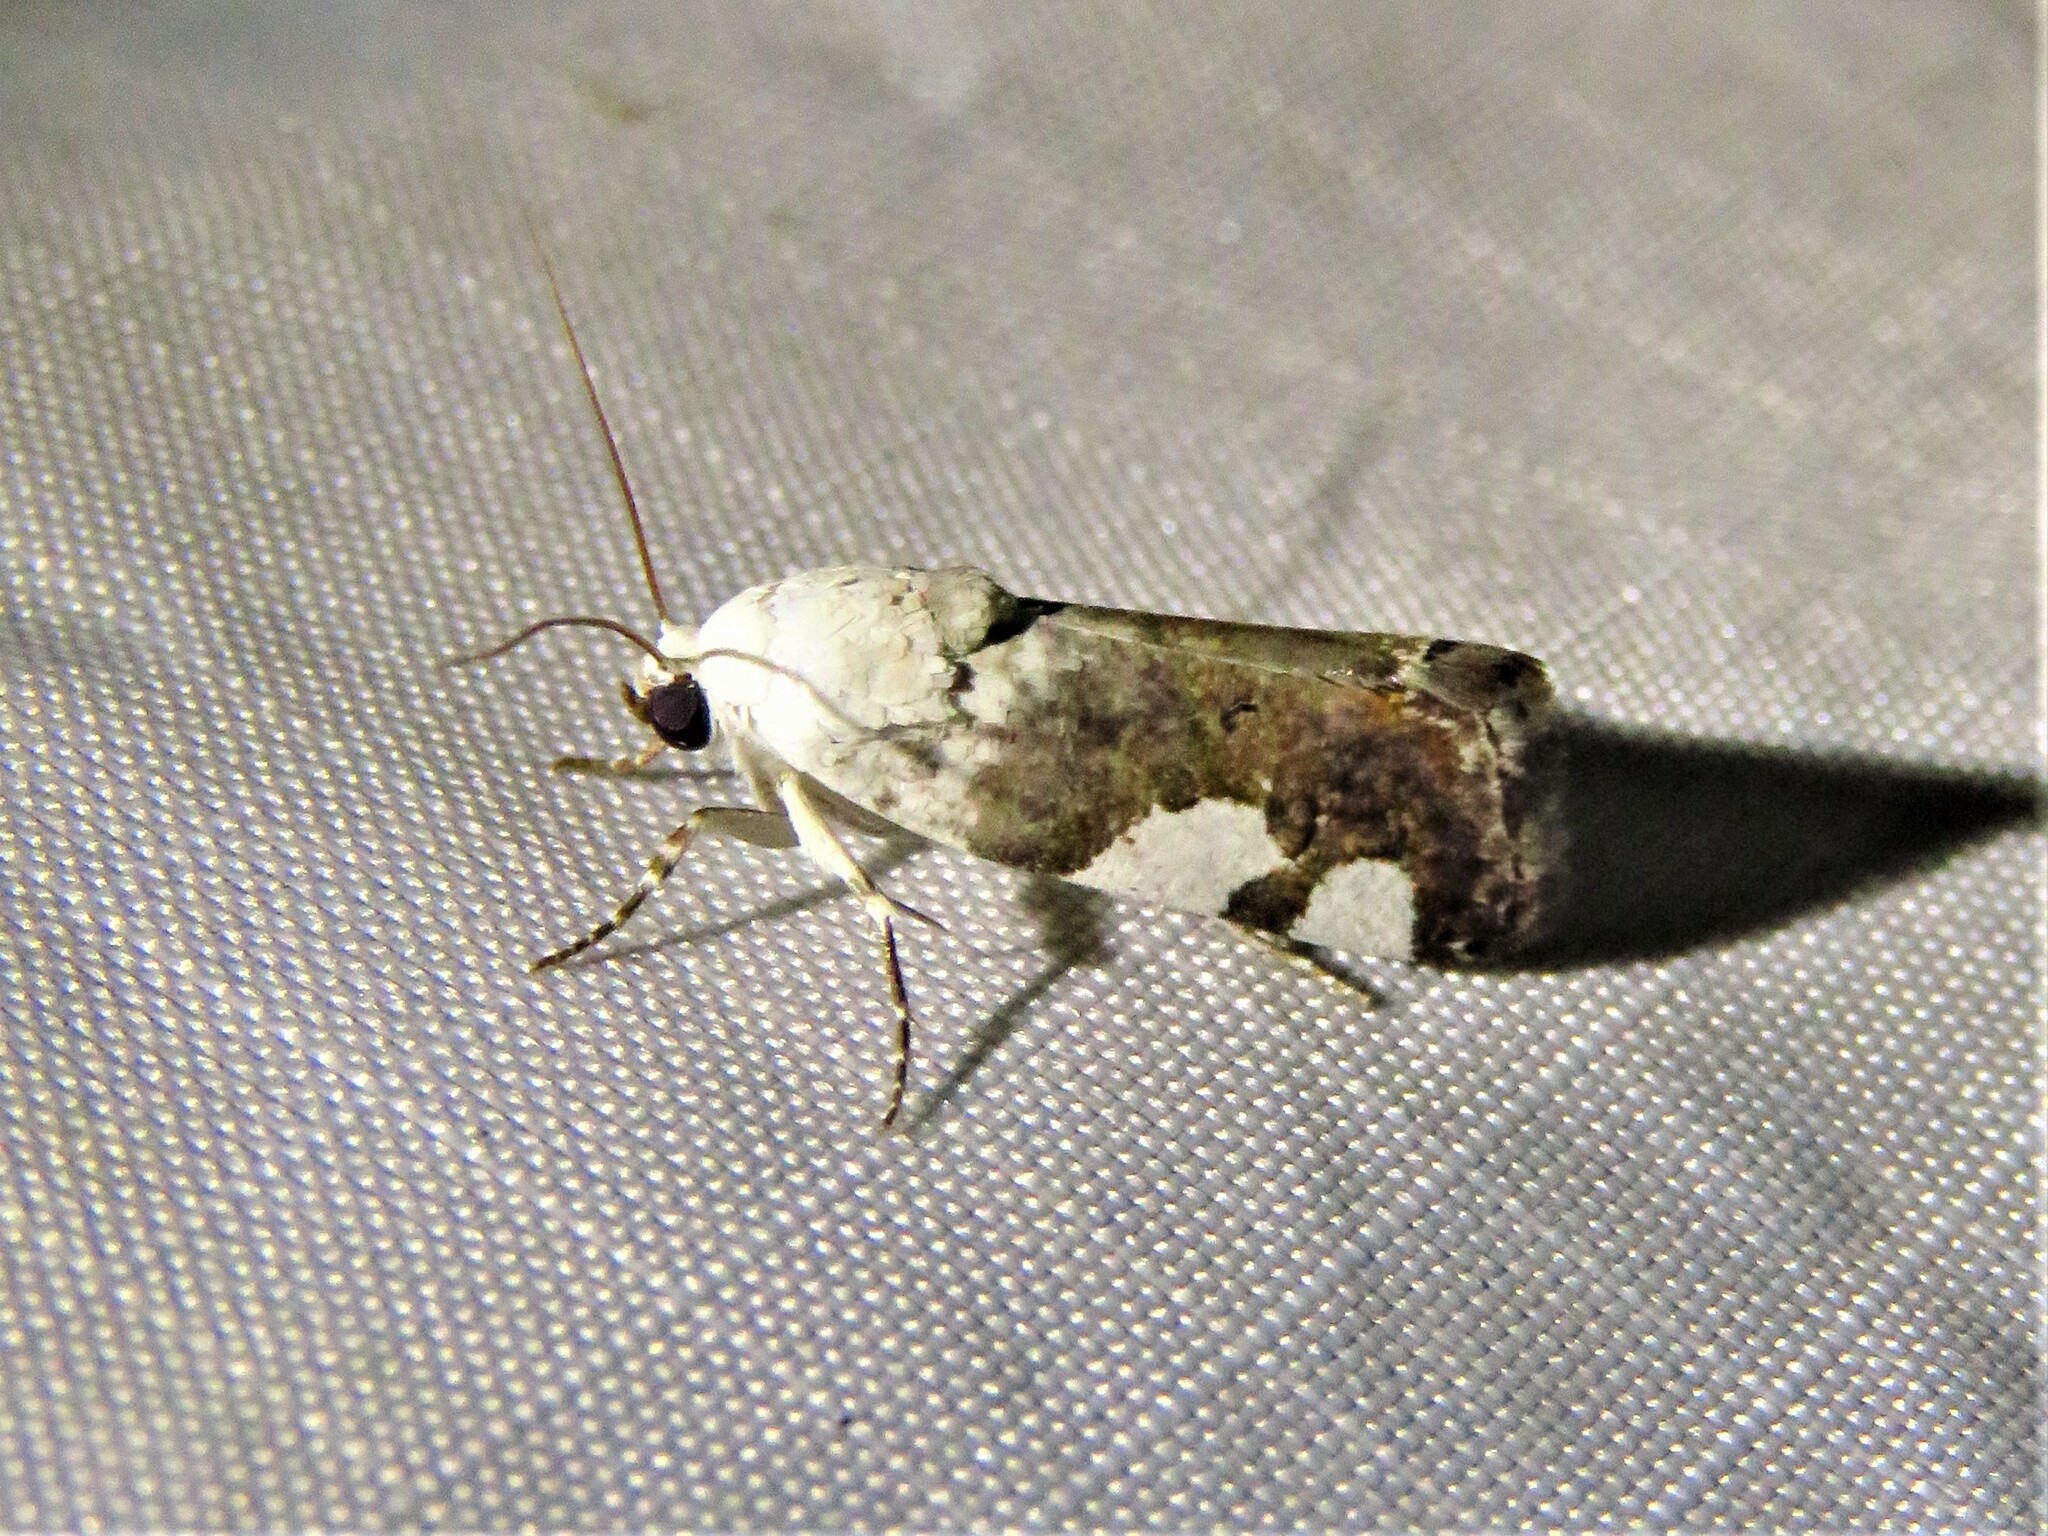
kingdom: Animalia
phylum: Arthropoda
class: Insecta
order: Lepidoptera
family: Noctuidae
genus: Acontia
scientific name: Acontia quadriplaga
